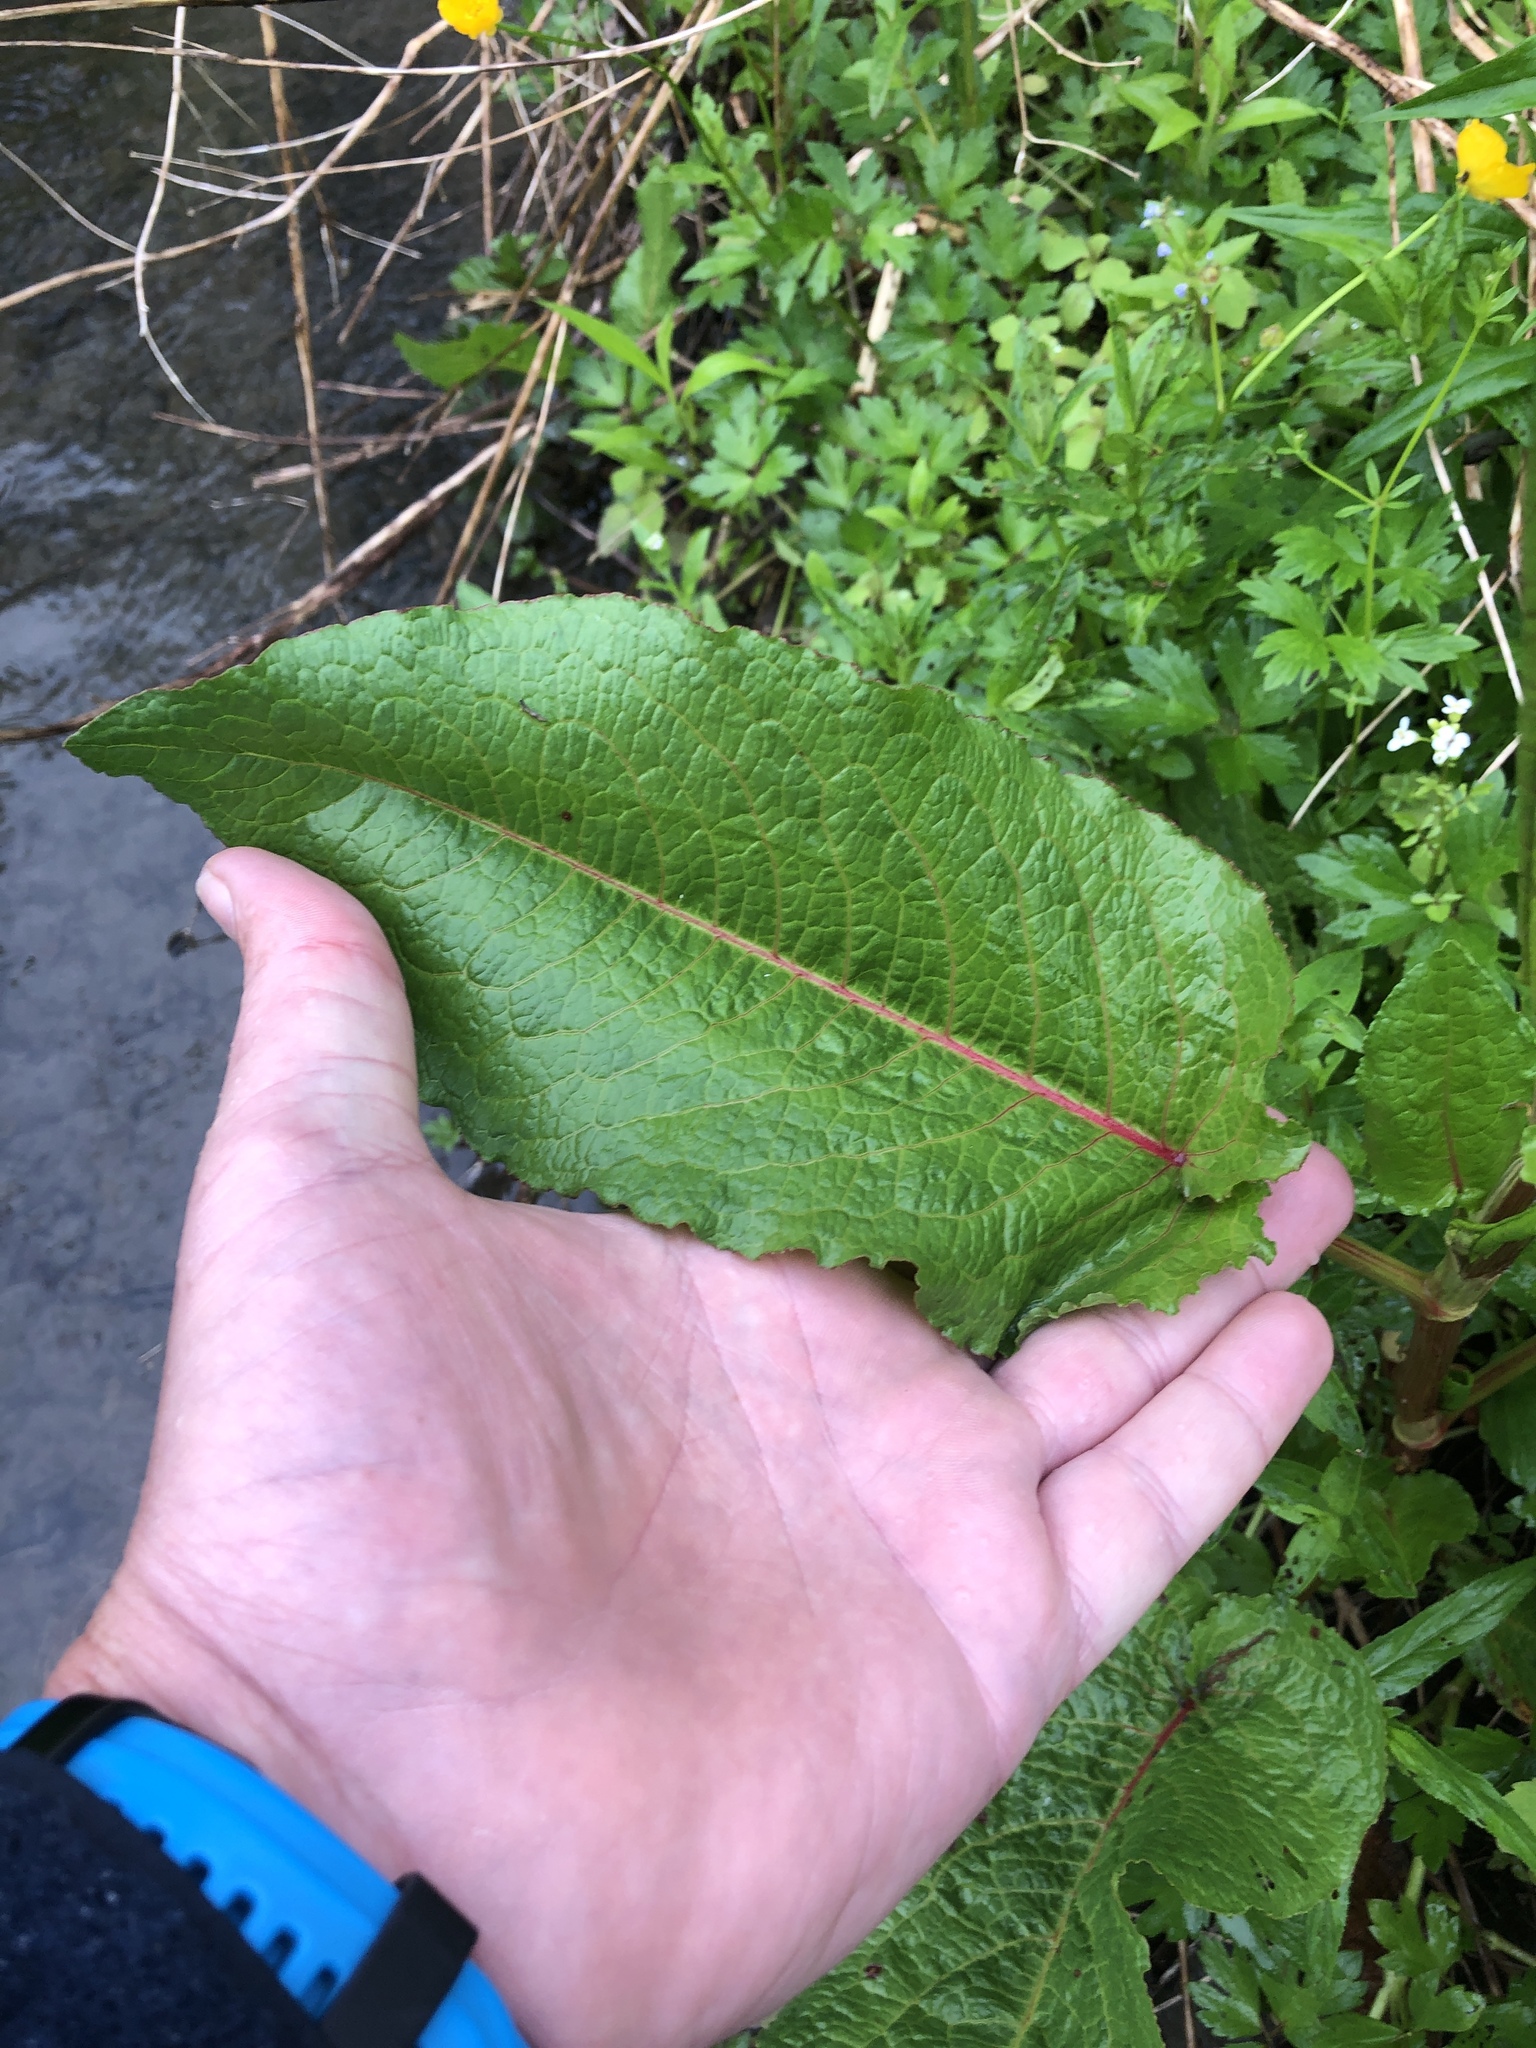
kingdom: Plantae
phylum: Tracheophyta
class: Magnoliopsida
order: Caryophyllales
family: Polygonaceae
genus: Rumex
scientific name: Rumex obtusifolius
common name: Bitter dock
